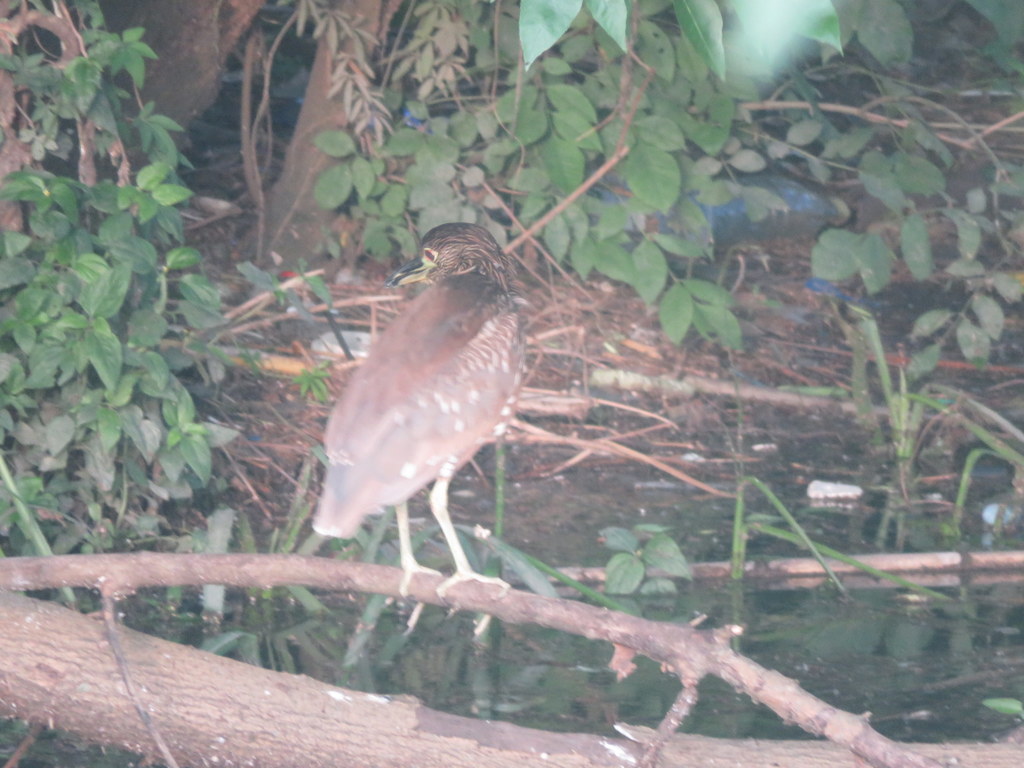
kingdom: Animalia
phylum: Chordata
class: Aves
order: Pelecaniformes
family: Ardeidae
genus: Nycticorax
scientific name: Nycticorax nycticorax
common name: Black-crowned night heron
